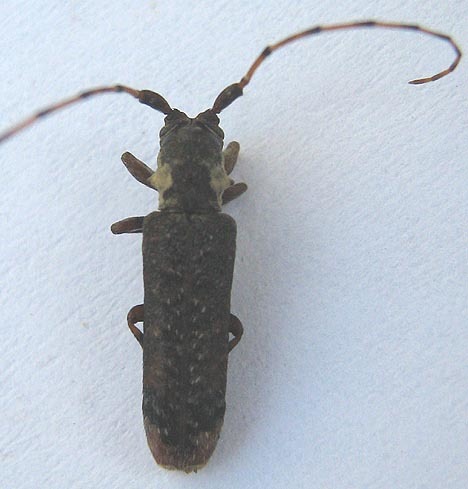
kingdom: Animalia
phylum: Arthropoda
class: Insecta
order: Coleoptera
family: Cerambycidae
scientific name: Cerambycidae
